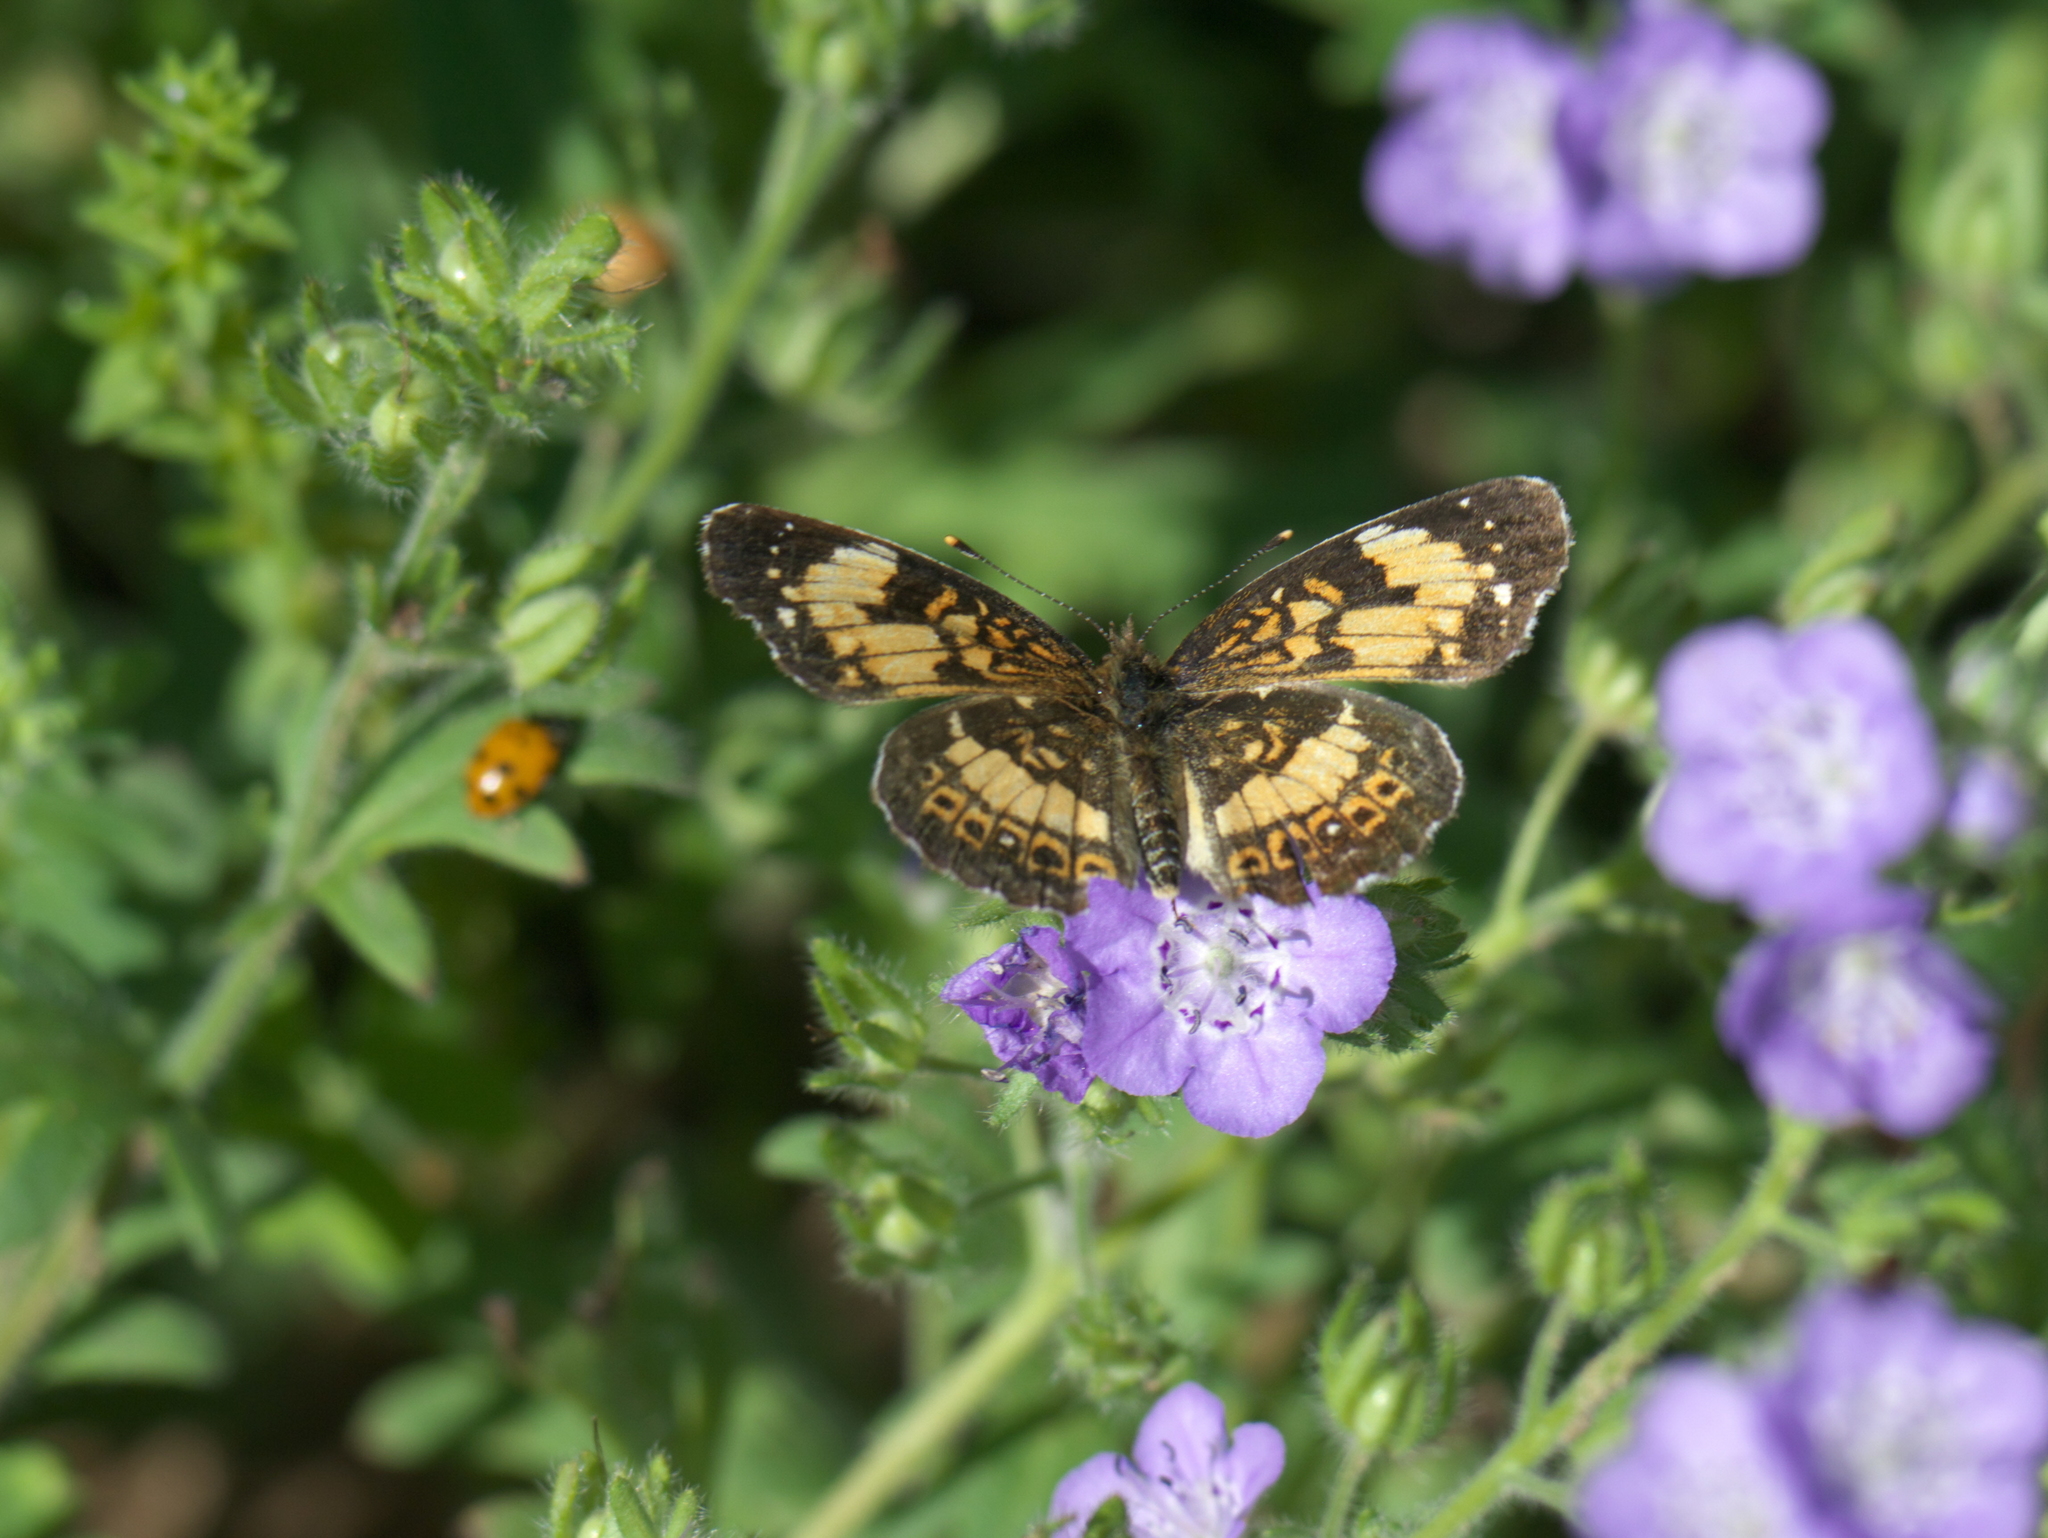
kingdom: Animalia
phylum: Arthropoda
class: Insecta
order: Lepidoptera
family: Nymphalidae
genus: Chlosyne
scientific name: Chlosyne nycteis
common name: Silvery checkerspot
